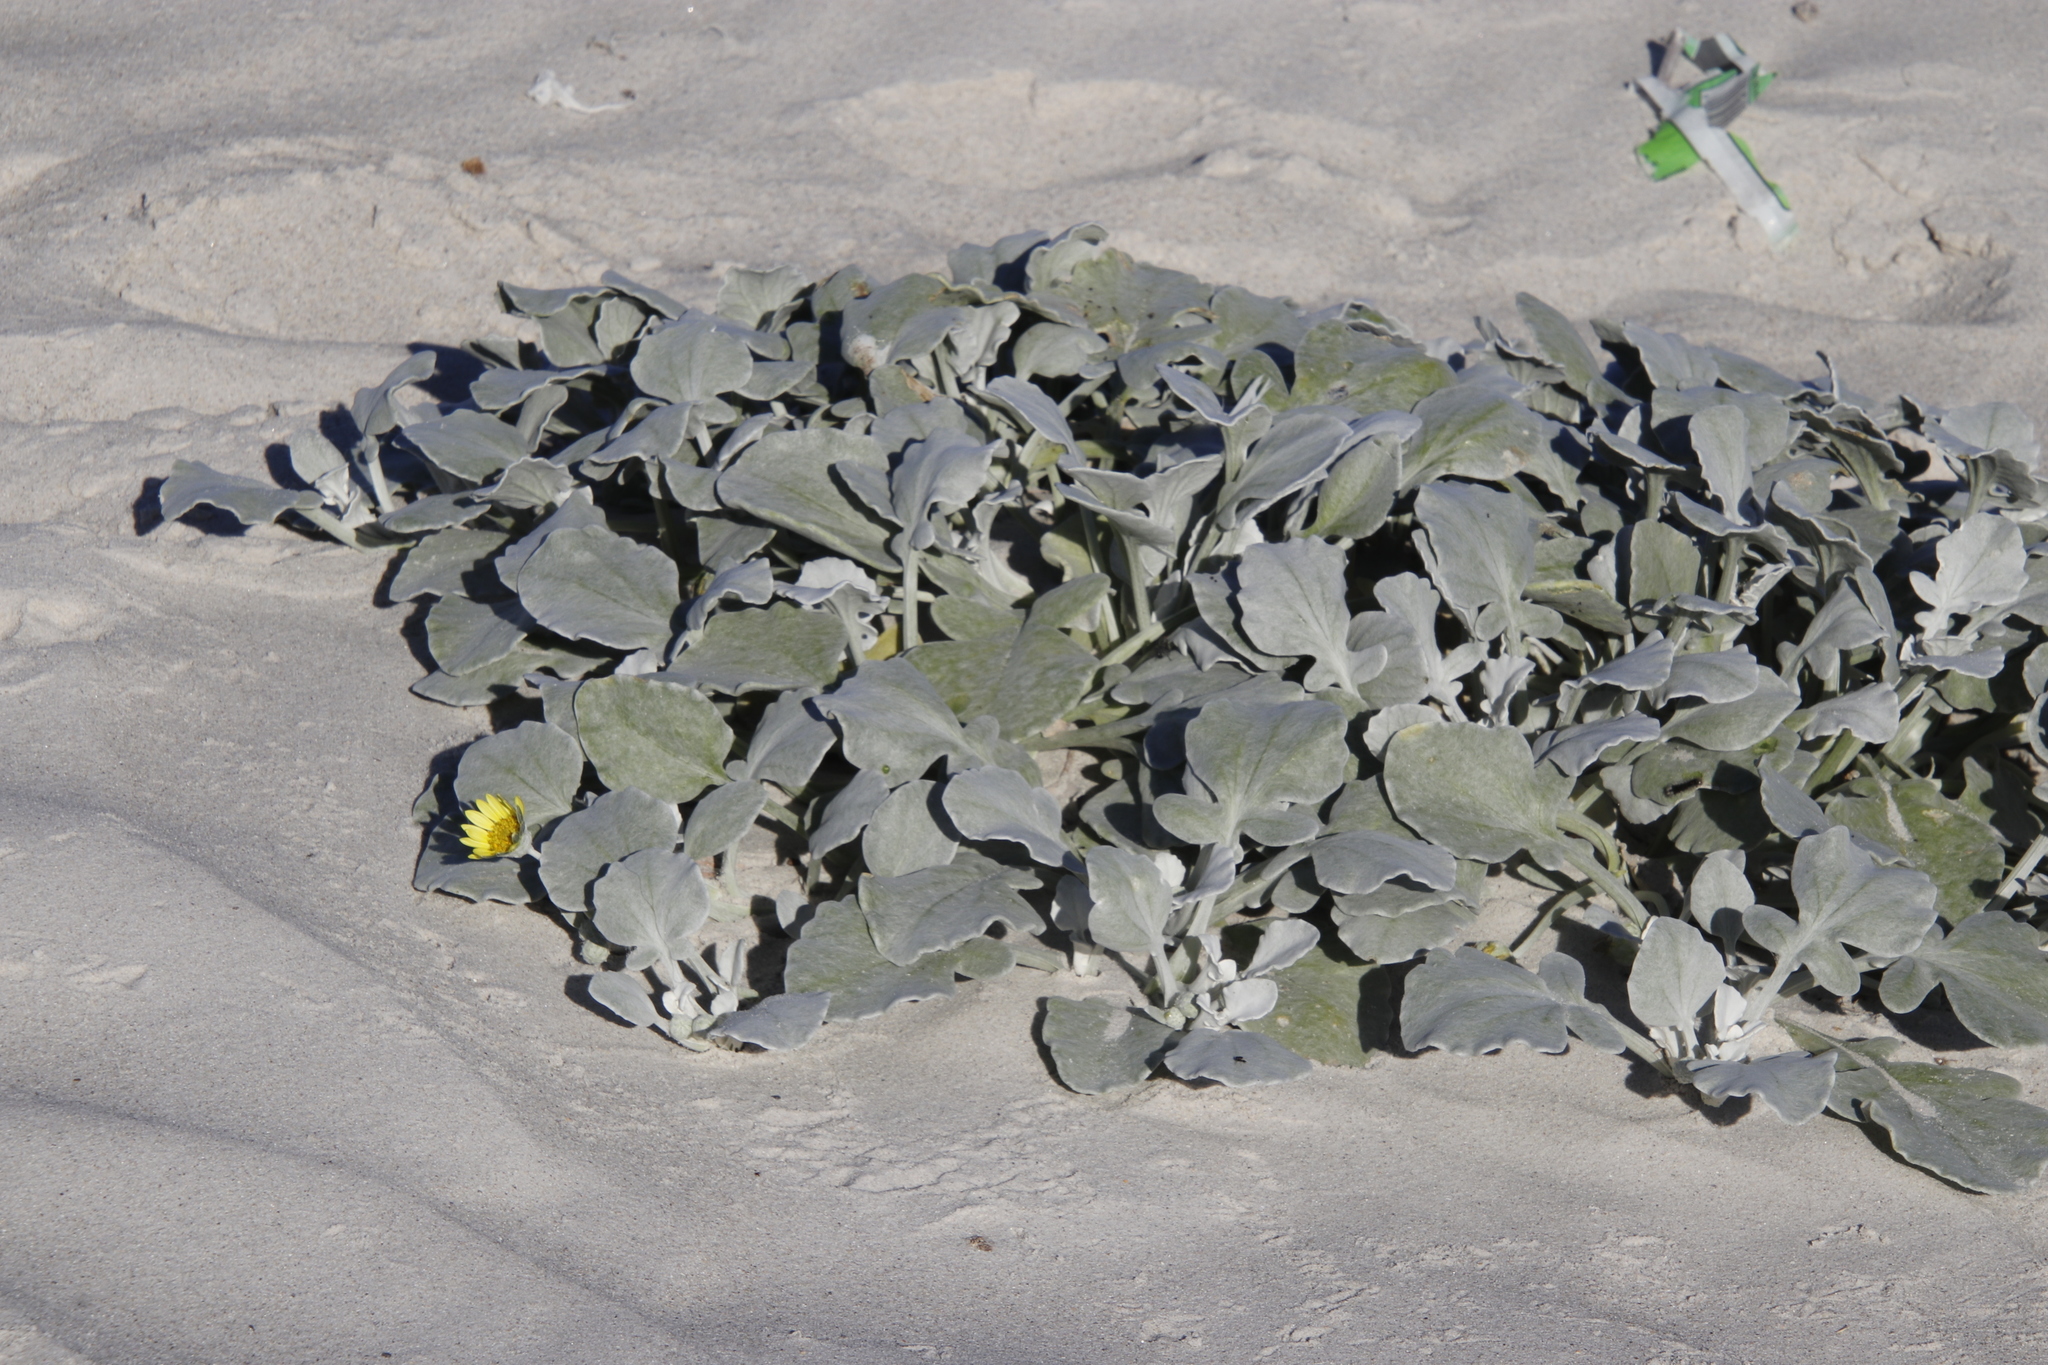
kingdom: Plantae
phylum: Tracheophyta
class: Magnoliopsida
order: Asterales
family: Asteraceae
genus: Arctotheca
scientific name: Arctotheca populifolia
